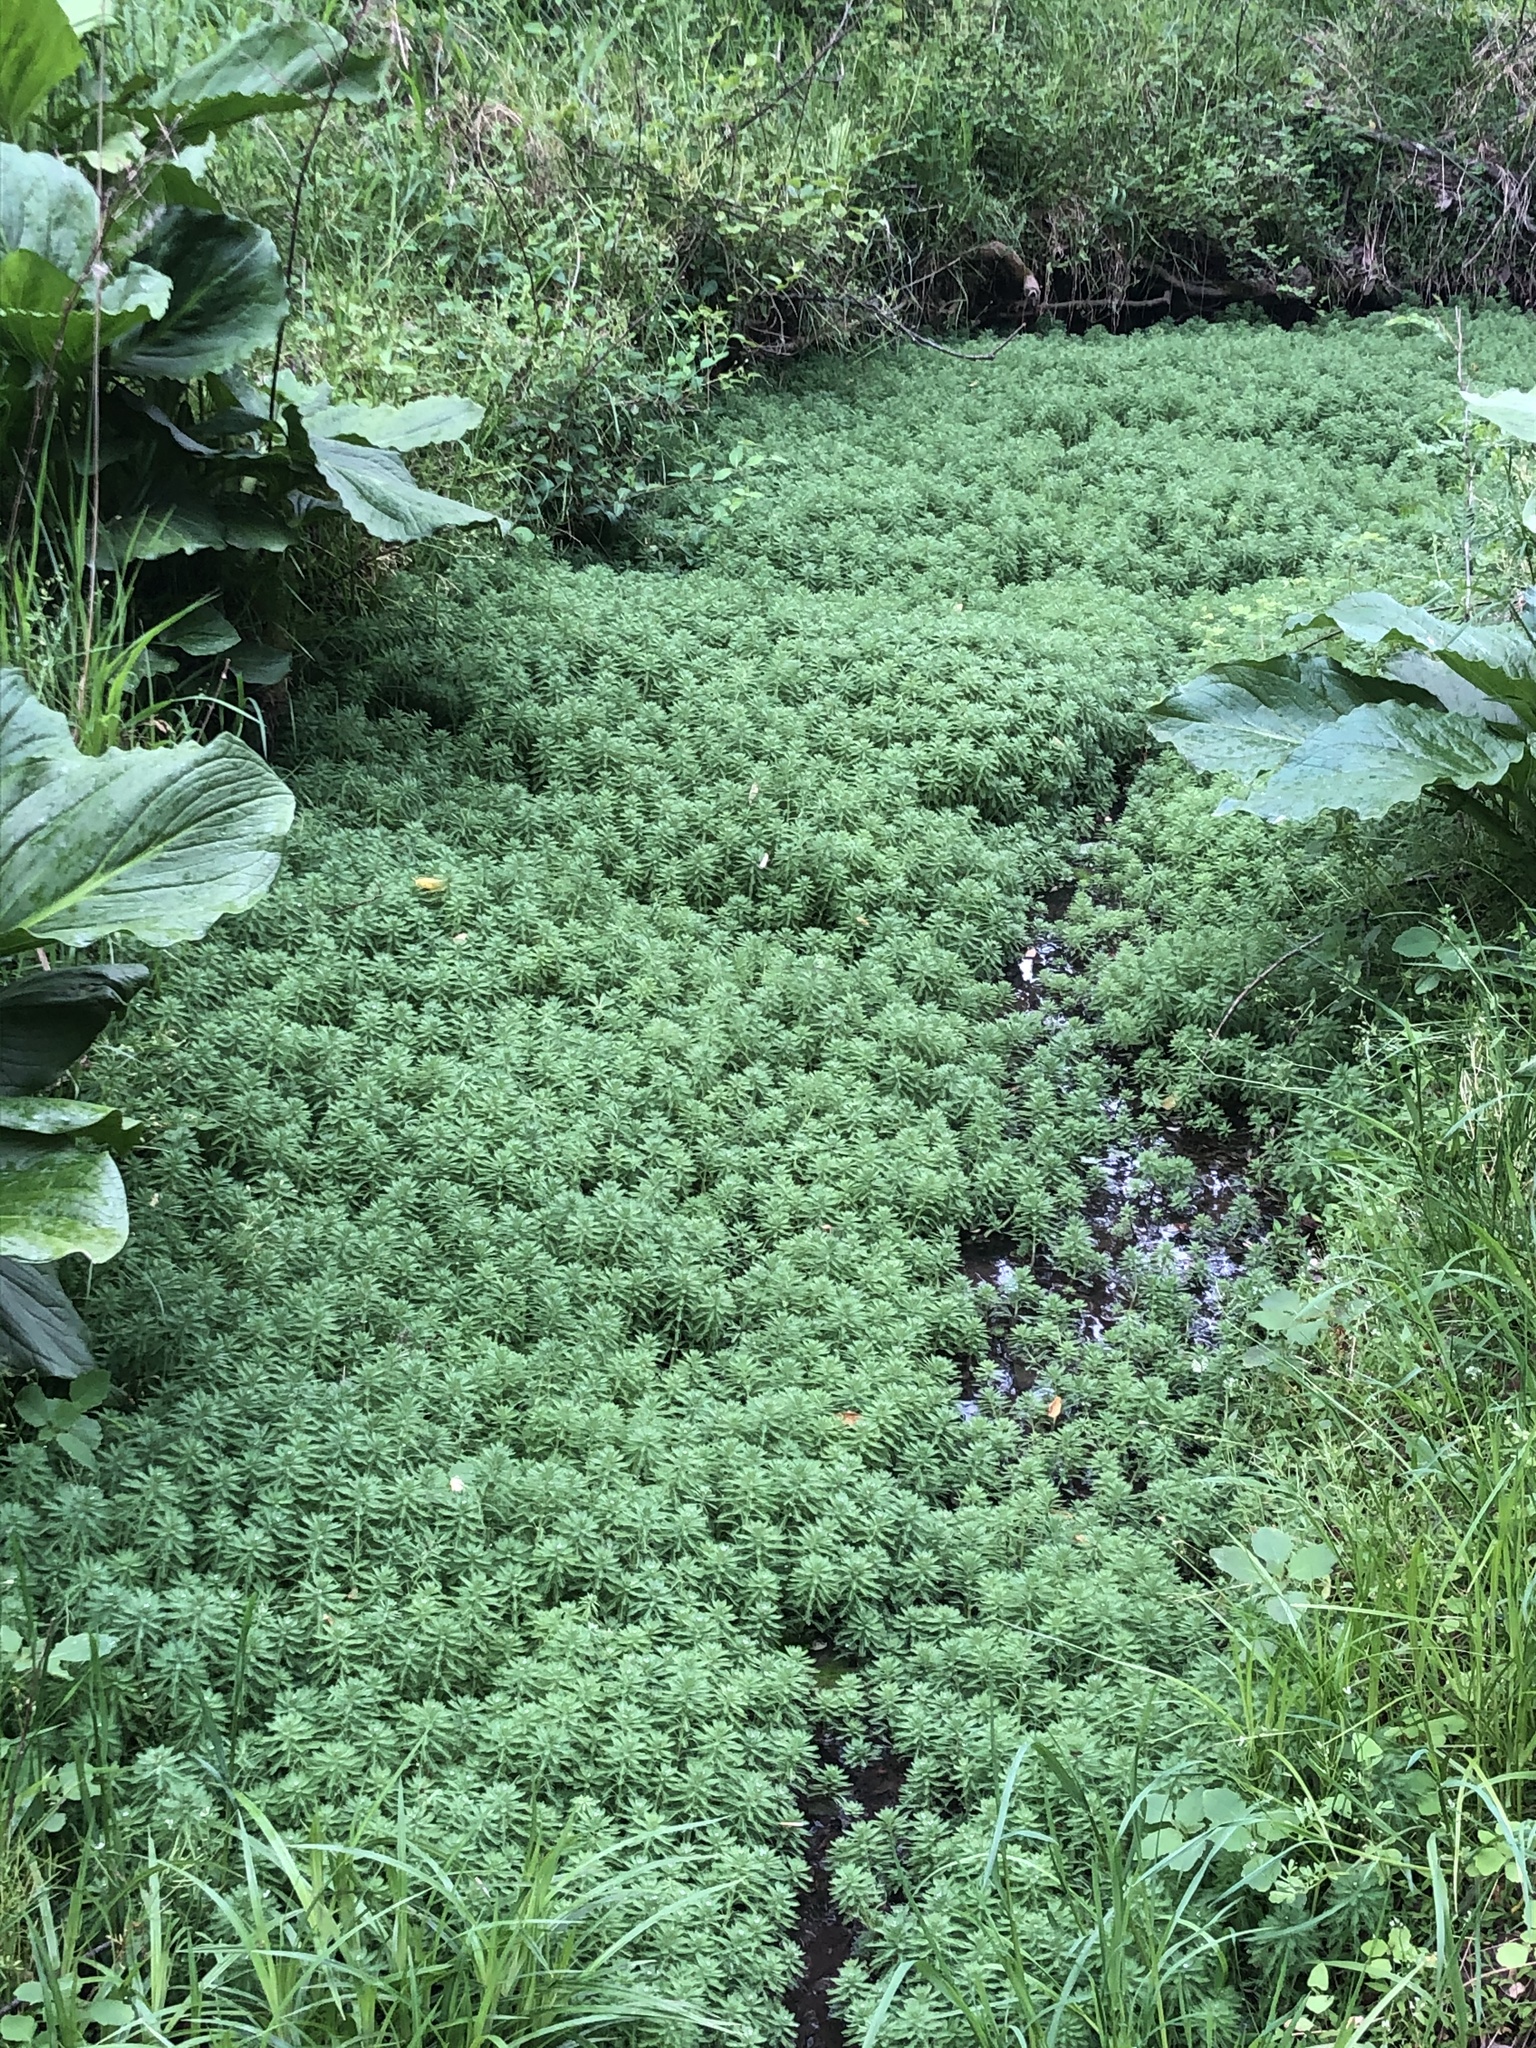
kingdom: Plantae
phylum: Tracheophyta
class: Magnoliopsida
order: Saxifragales
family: Haloragaceae
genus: Myriophyllum
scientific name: Myriophyllum aquaticum
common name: Parrot's feather
